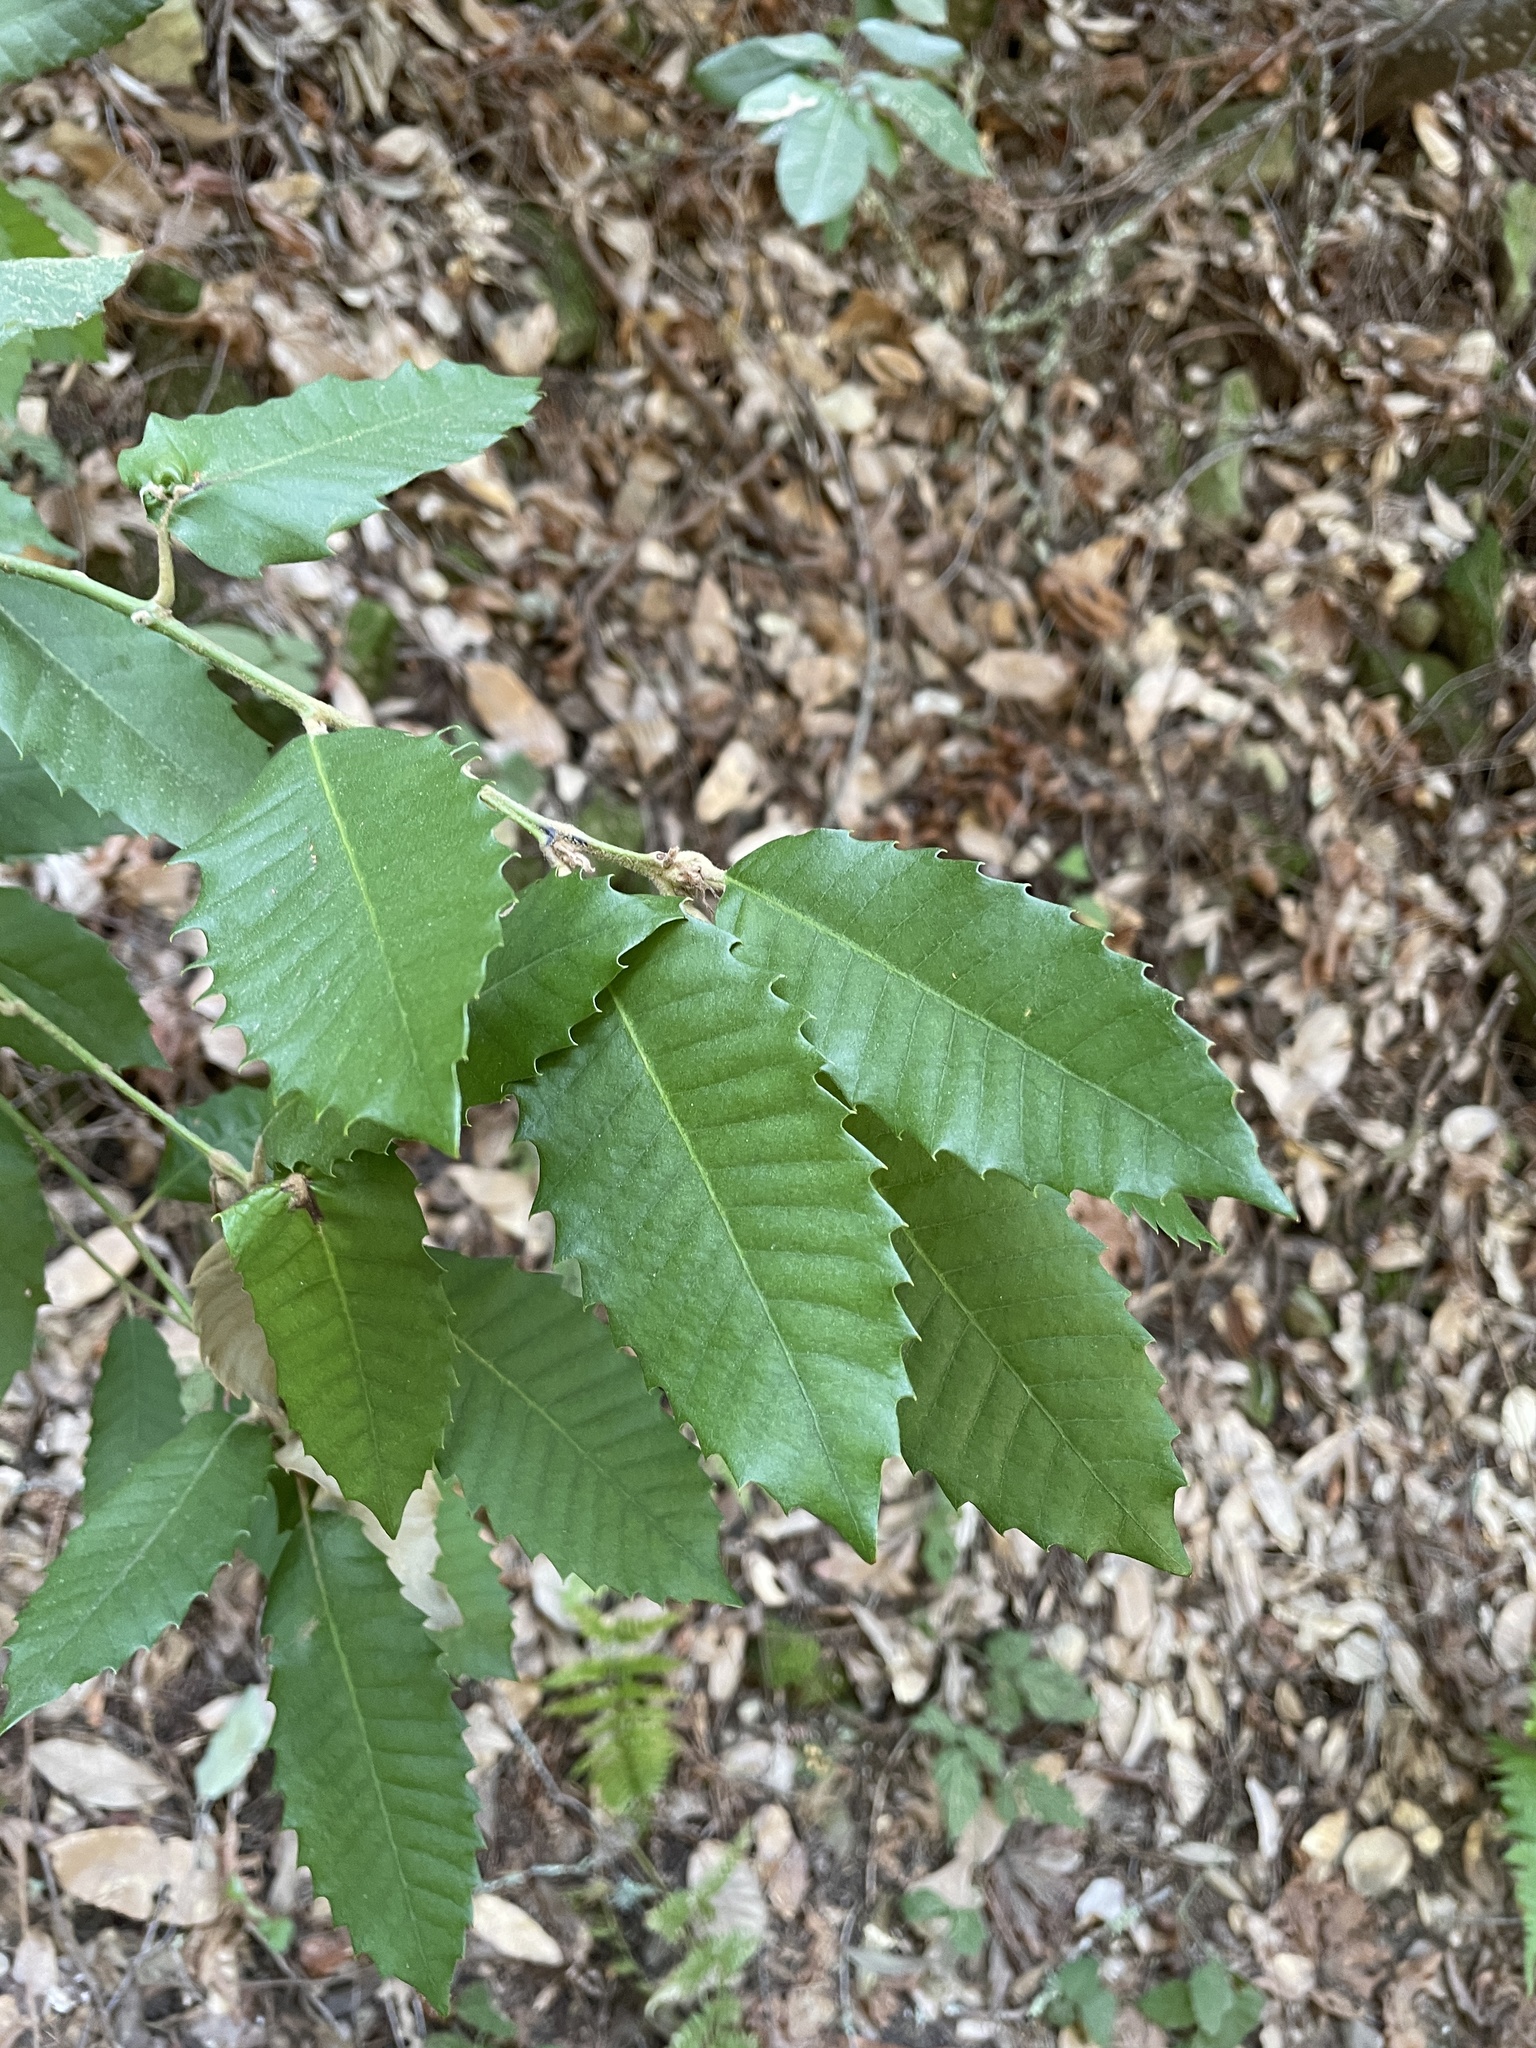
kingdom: Plantae
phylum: Tracheophyta
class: Magnoliopsida
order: Fagales
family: Fagaceae
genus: Notholithocarpus
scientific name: Notholithocarpus densiflorus
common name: Tan bark oak
